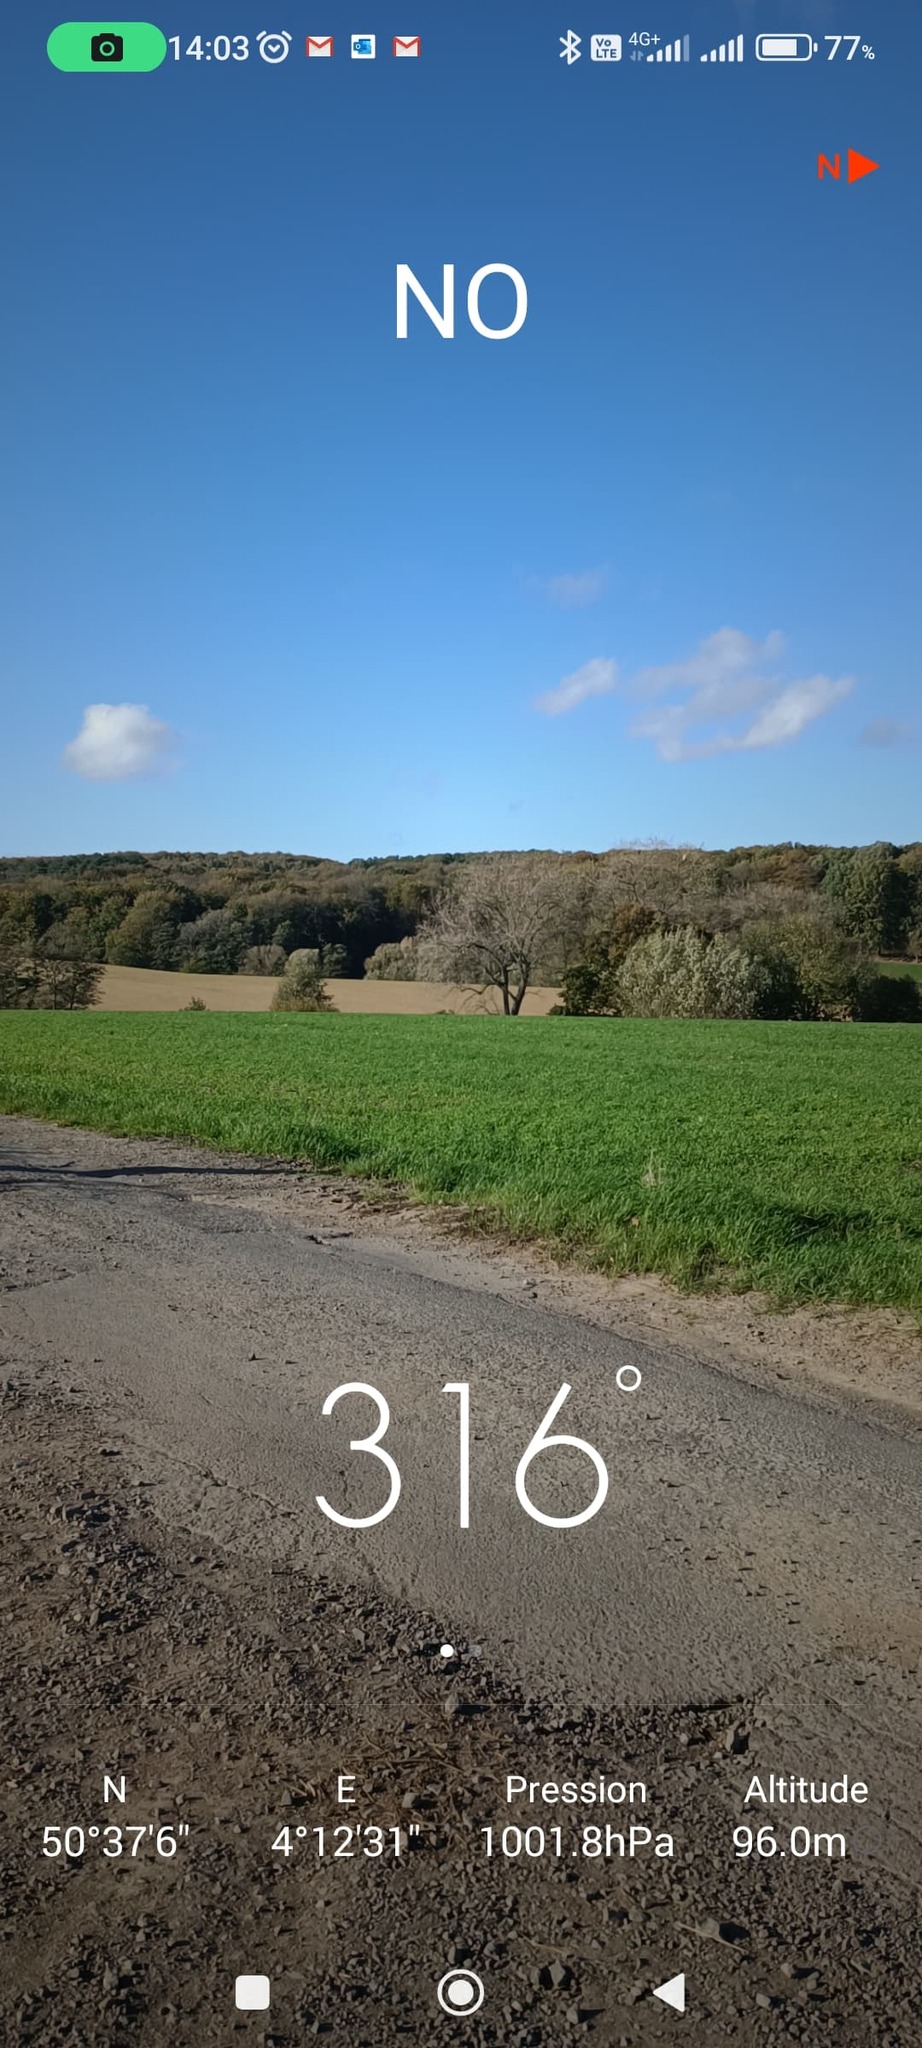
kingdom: Animalia
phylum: Arthropoda
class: Insecta
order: Hymenoptera
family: Vespidae
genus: Vespa
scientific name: Vespa velutina
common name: Asian hornet
